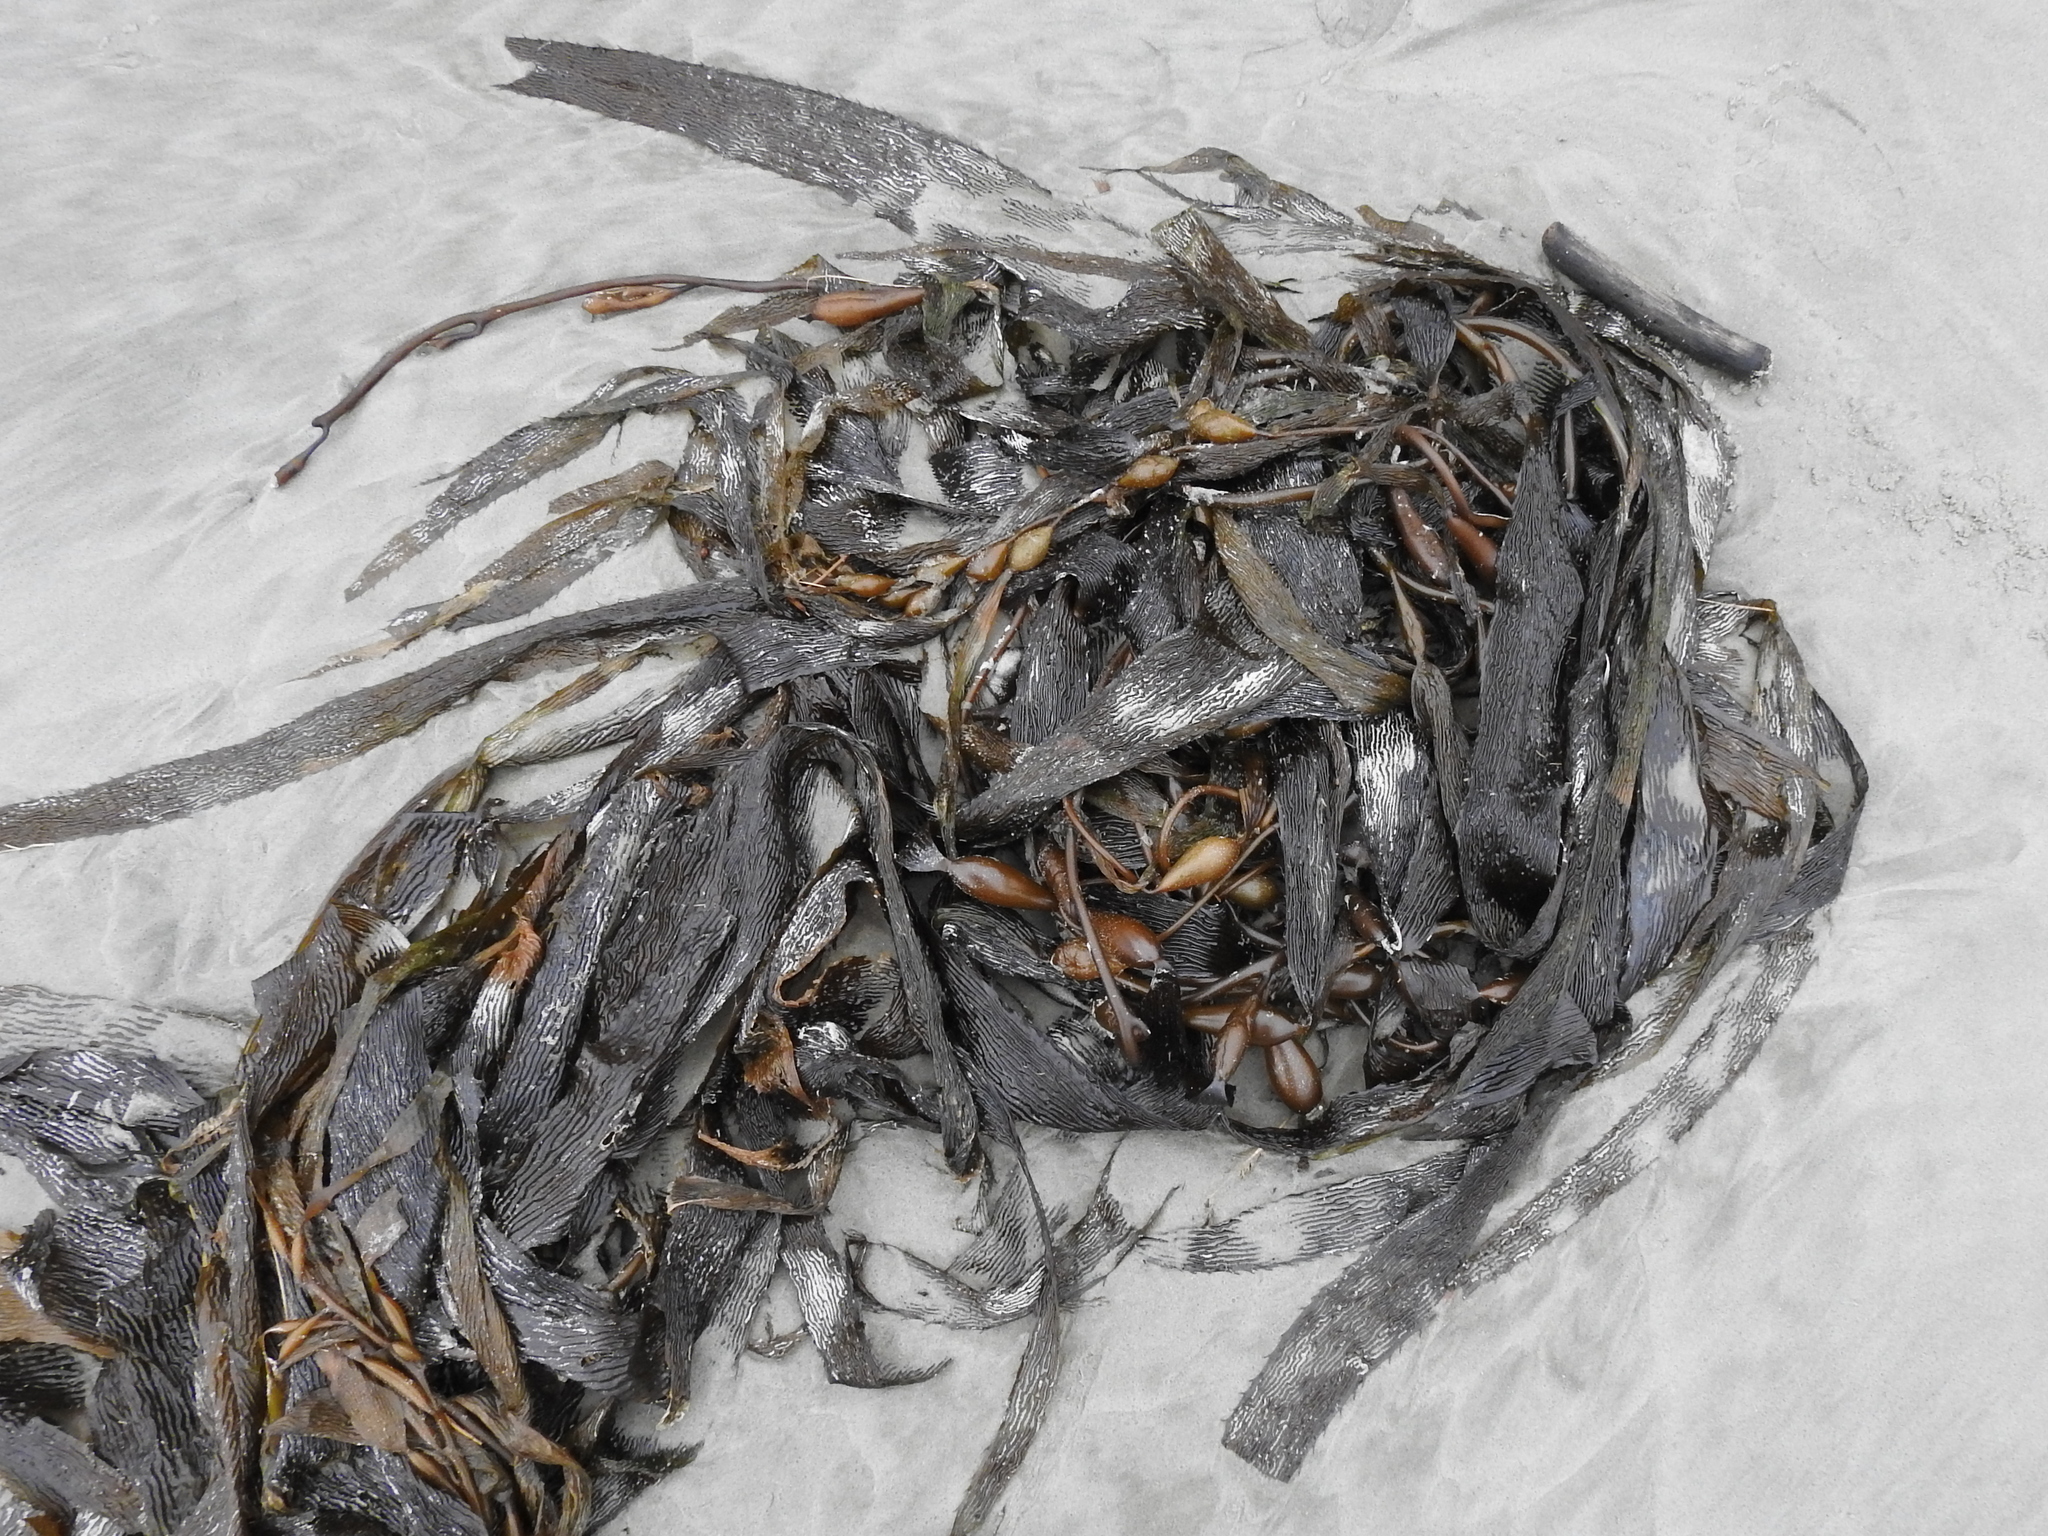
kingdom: Chromista
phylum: Ochrophyta
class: Phaeophyceae
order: Laminariales
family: Laminariaceae
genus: Macrocystis
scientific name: Macrocystis pyrifera
